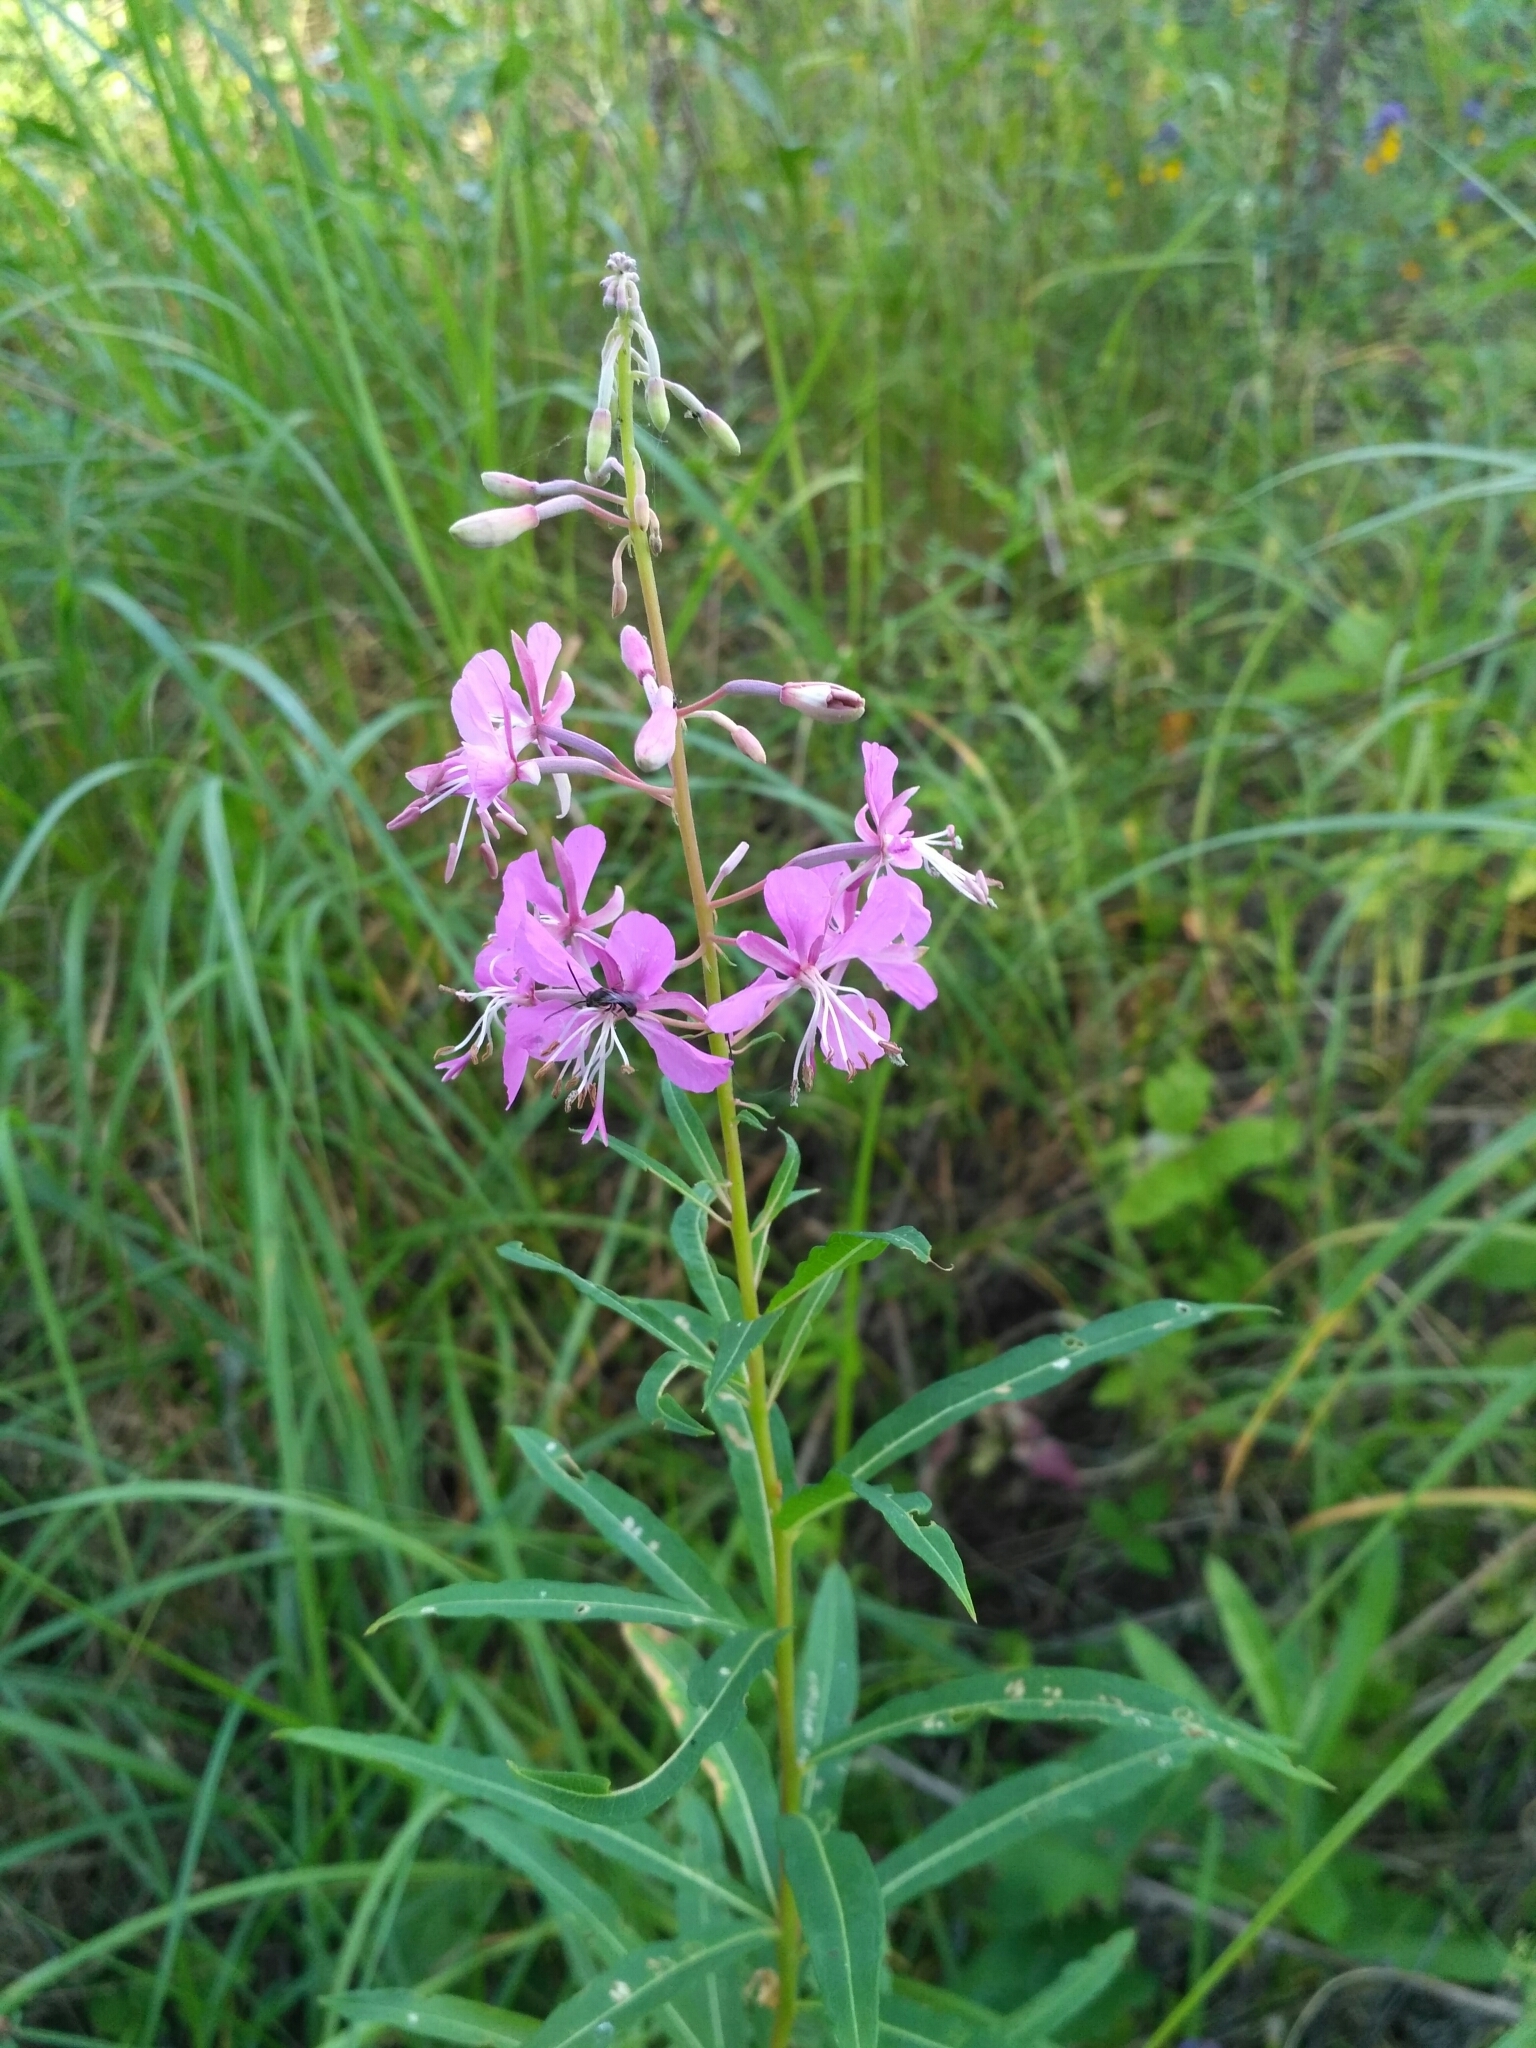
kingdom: Plantae
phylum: Tracheophyta
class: Magnoliopsida
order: Myrtales
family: Onagraceae
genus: Chamaenerion
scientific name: Chamaenerion angustifolium
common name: Fireweed
